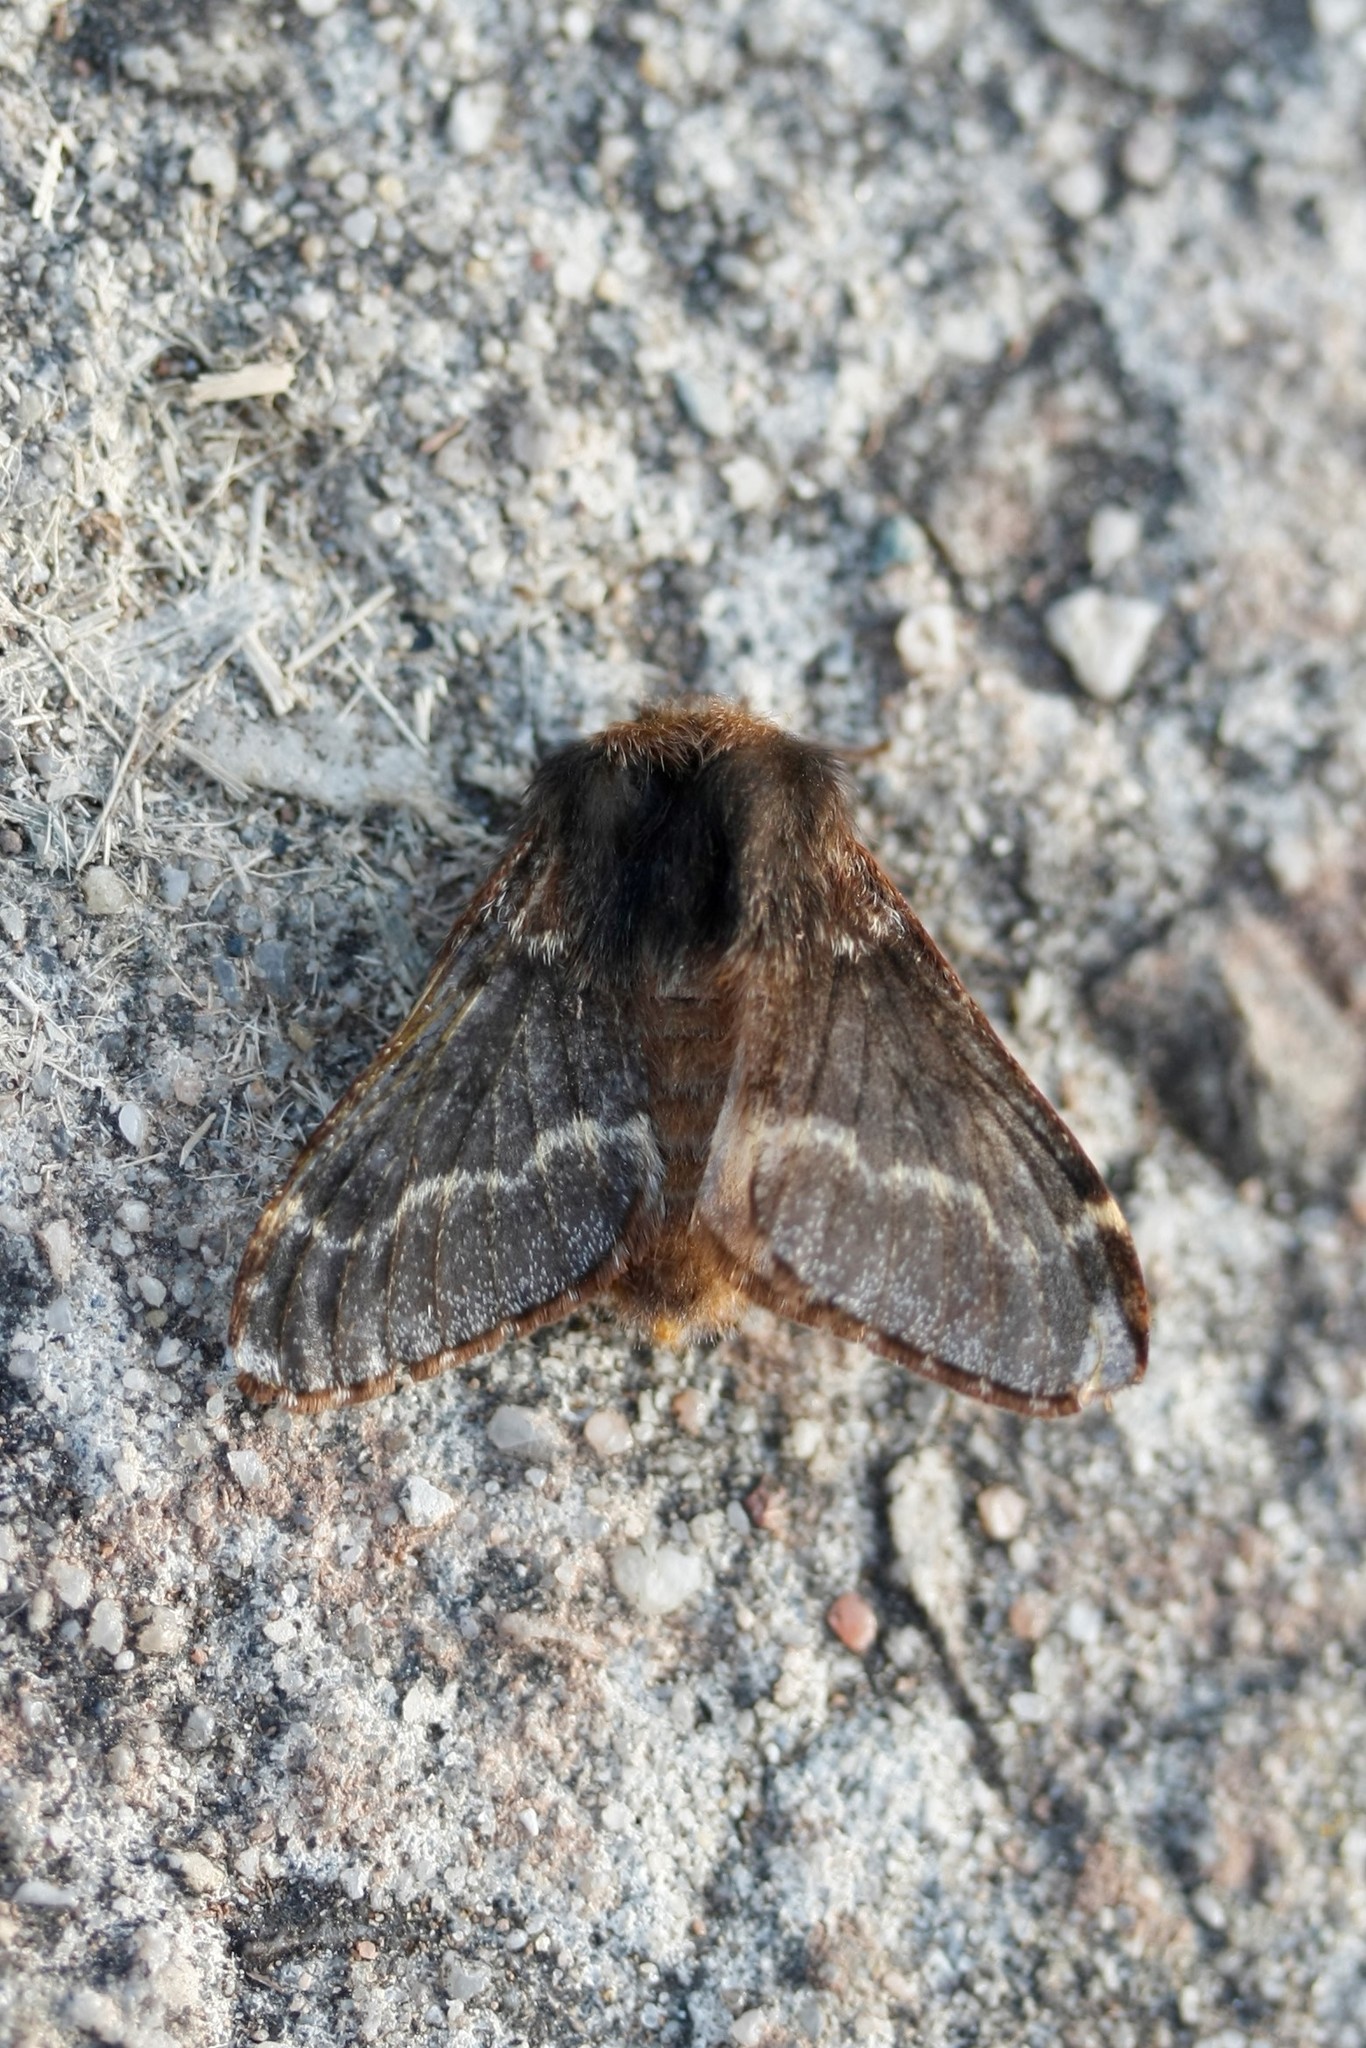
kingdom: Animalia
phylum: Arthropoda
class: Insecta
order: Lepidoptera
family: Lasiocampidae
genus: Poecilocampa
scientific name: Poecilocampa populi
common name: December moth
